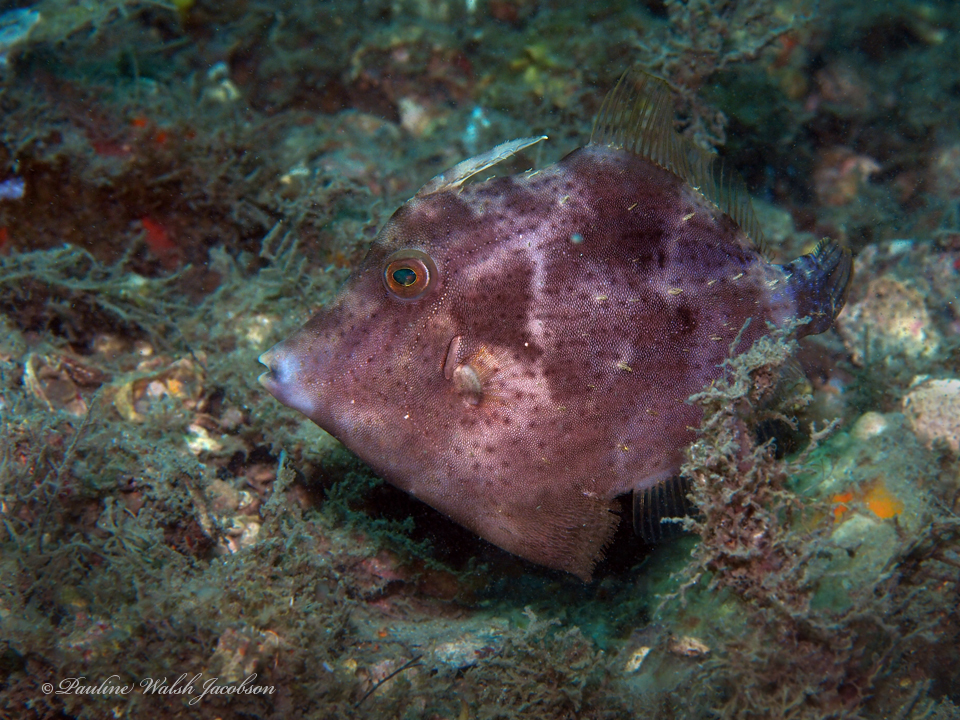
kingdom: Animalia
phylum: Chordata
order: Tetraodontiformes
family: Monacanthidae
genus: Stephanolepis
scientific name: Stephanolepis hispidus
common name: Planehead filefish
